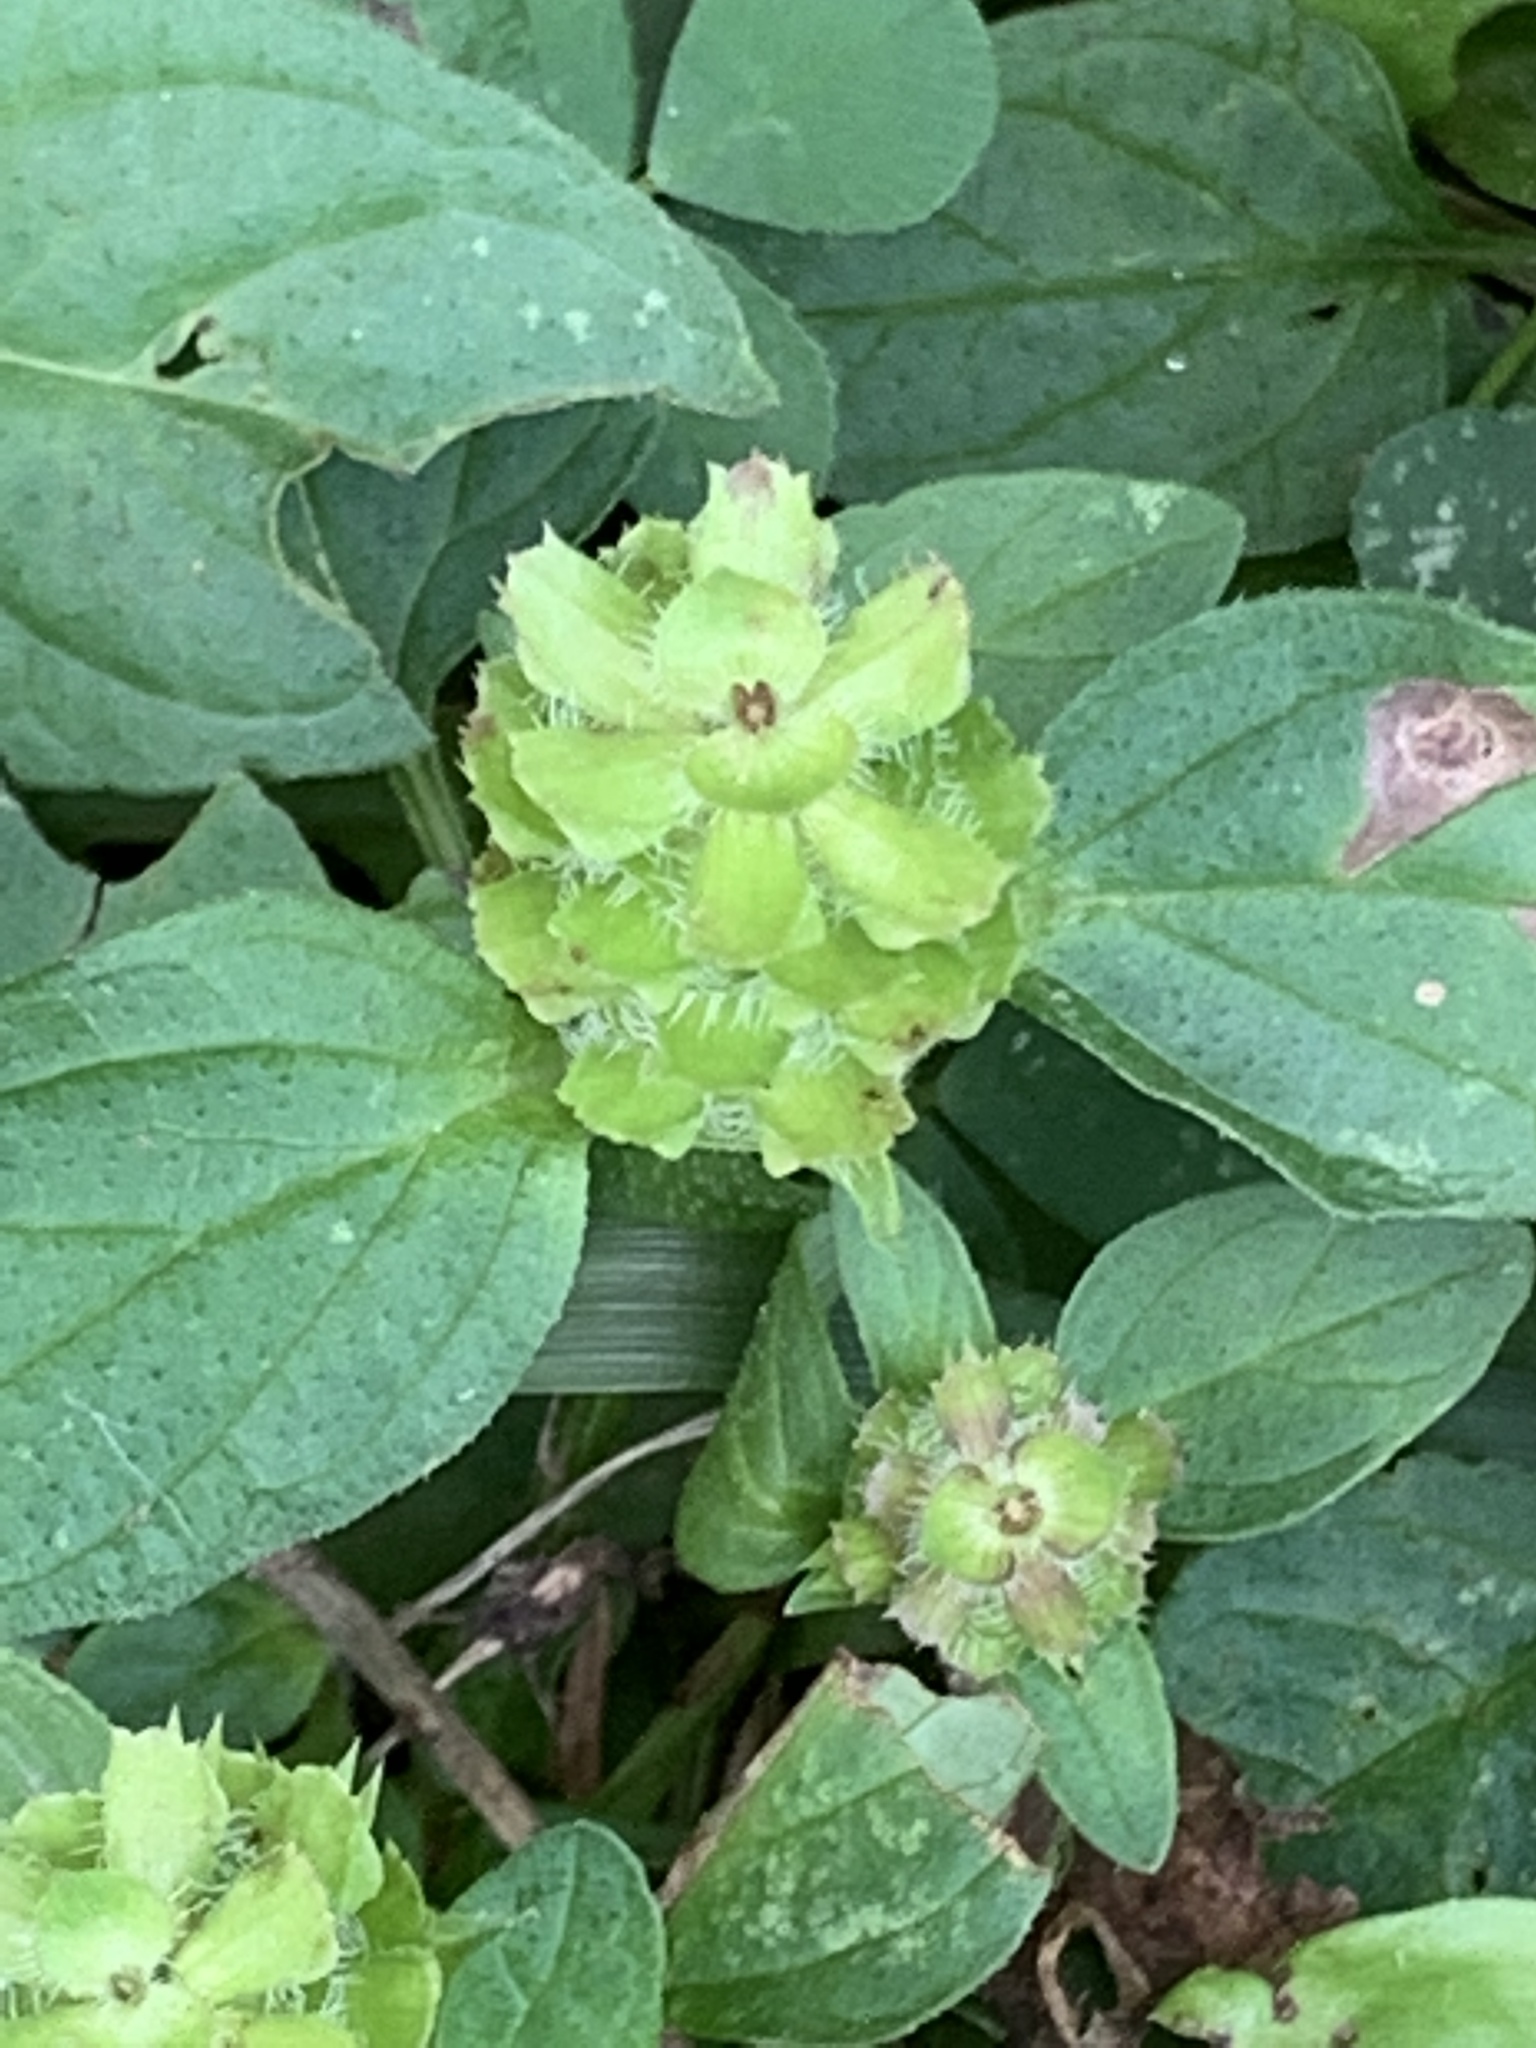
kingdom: Plantae
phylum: Tracheophyta
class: Magnoliopsida
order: Lamiales
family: Lamiaceae
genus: Prunella
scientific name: Prunella vulgaris
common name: Heal-all
